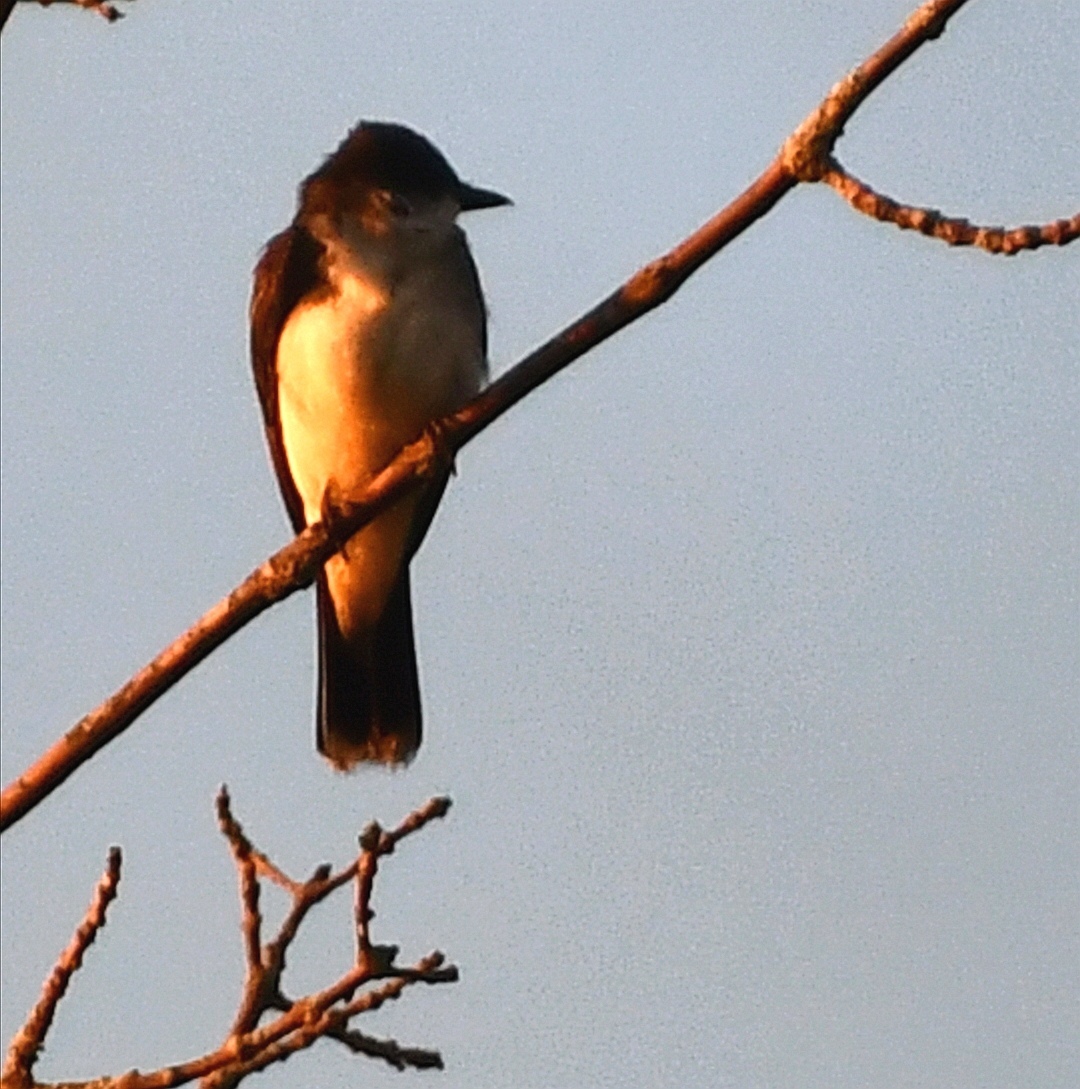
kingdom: Animalia
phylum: Chordata
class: Aves
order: Passeriformes
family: Tyrannidae
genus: Tyrannus
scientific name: Tyrannus tyrannus
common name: Eastern kingbird
